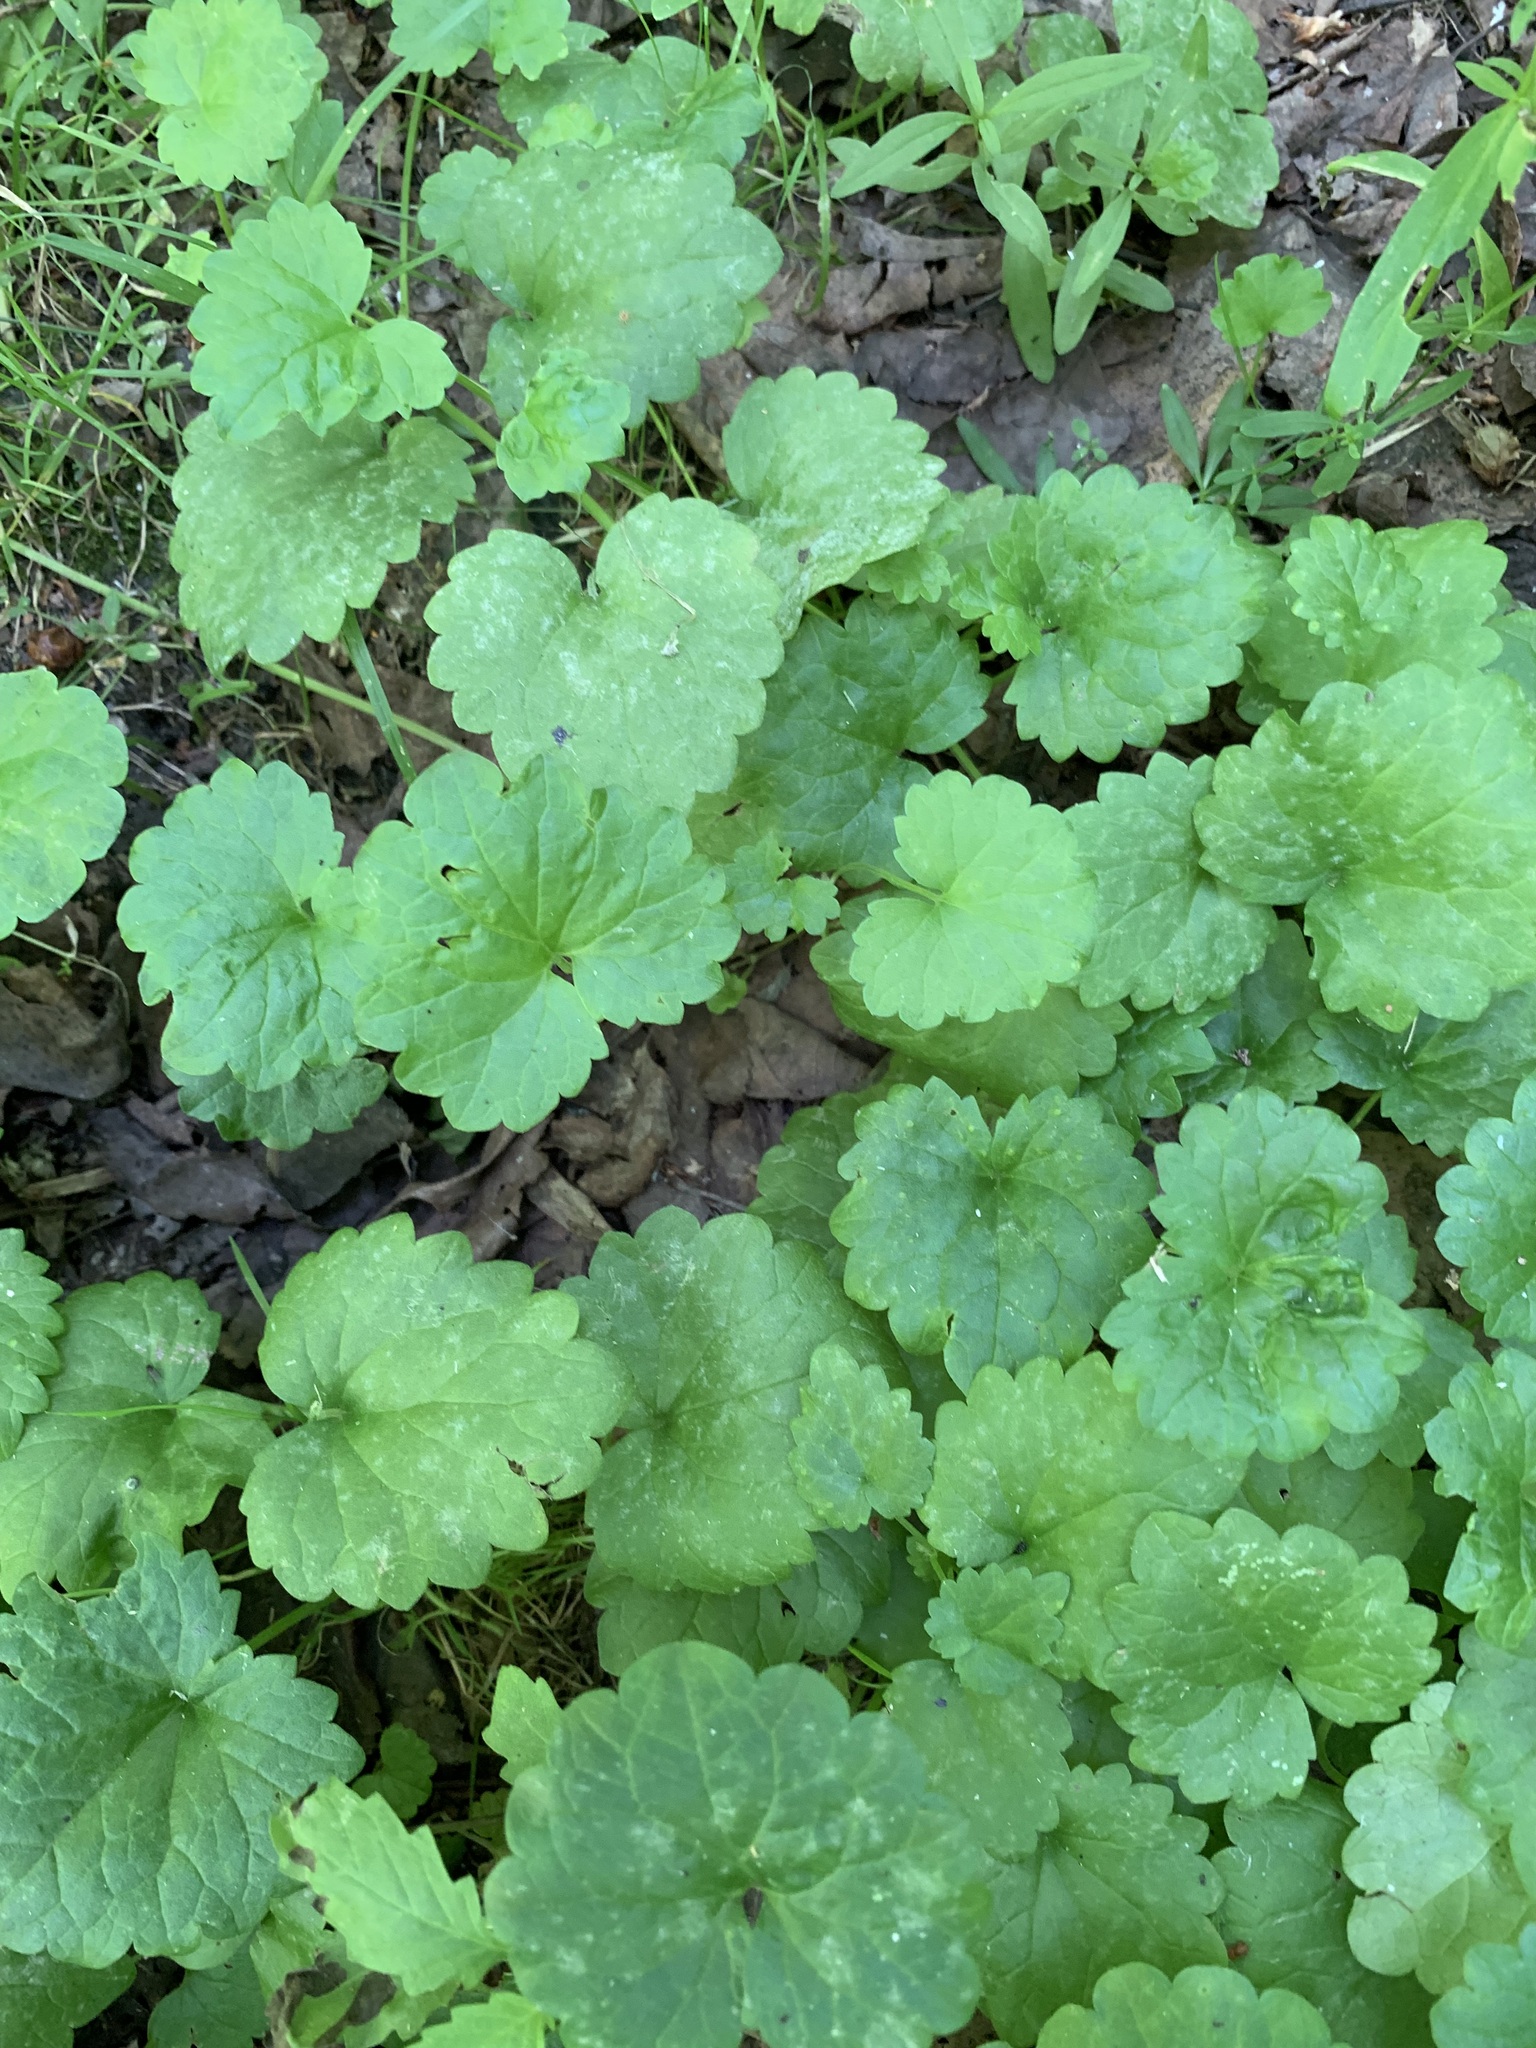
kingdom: Plantae
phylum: Tracheophyta
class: Magnoliopsida
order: Lamiales
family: Lamiaceae
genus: Glechoma
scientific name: Glechoma hederacea
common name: Ground ivy
